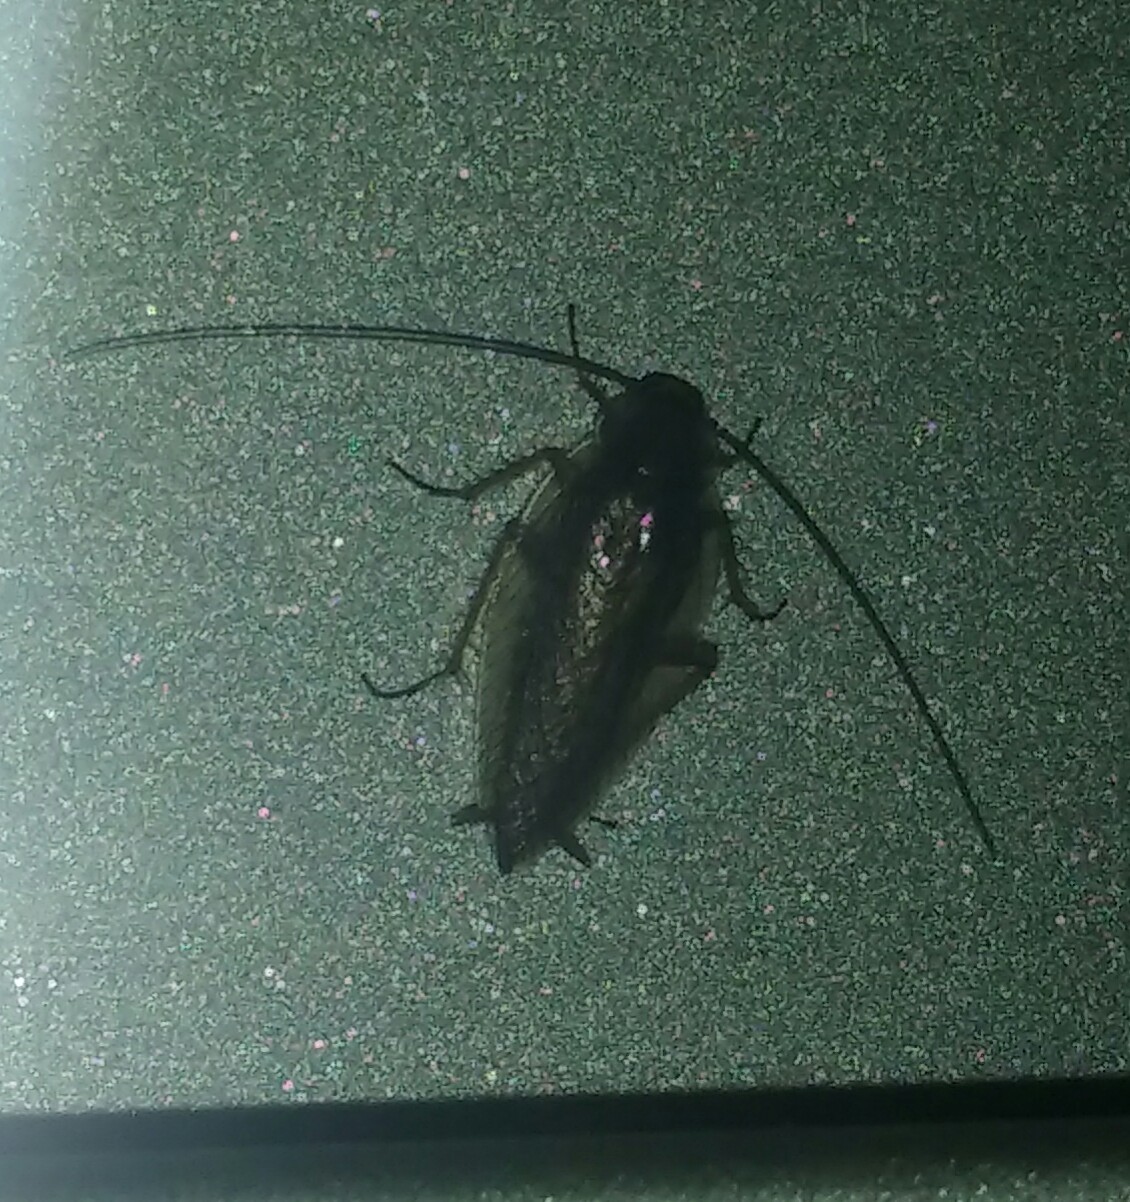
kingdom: Animalia
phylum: Arthropoda
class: Insecta
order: Blattodea
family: Ectobiidae
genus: Ectobius
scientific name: Ectobius vittiventris
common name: Garden cockroach
